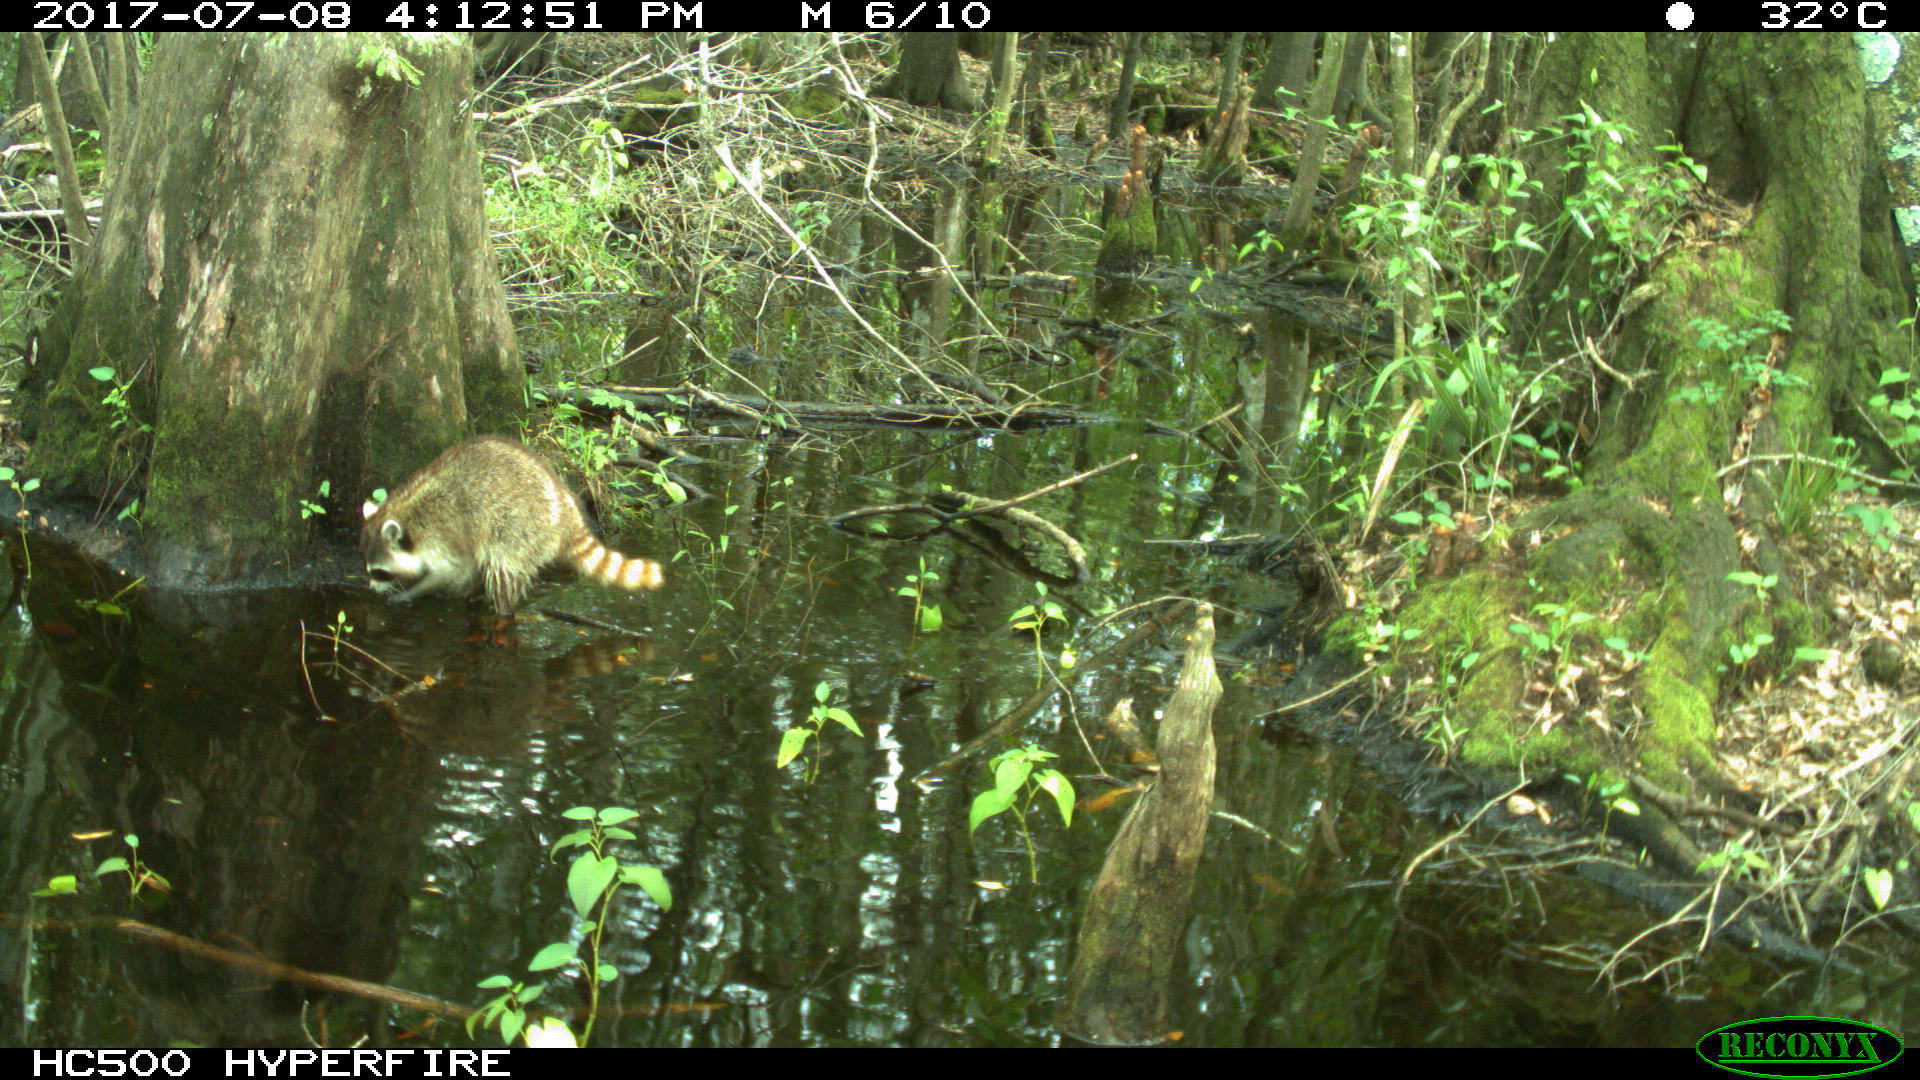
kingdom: Animalia
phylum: Chordata
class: Mammalia
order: Carnivora
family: Procyonidae
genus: Procyon
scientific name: Procyon lotor
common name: Raccoon
